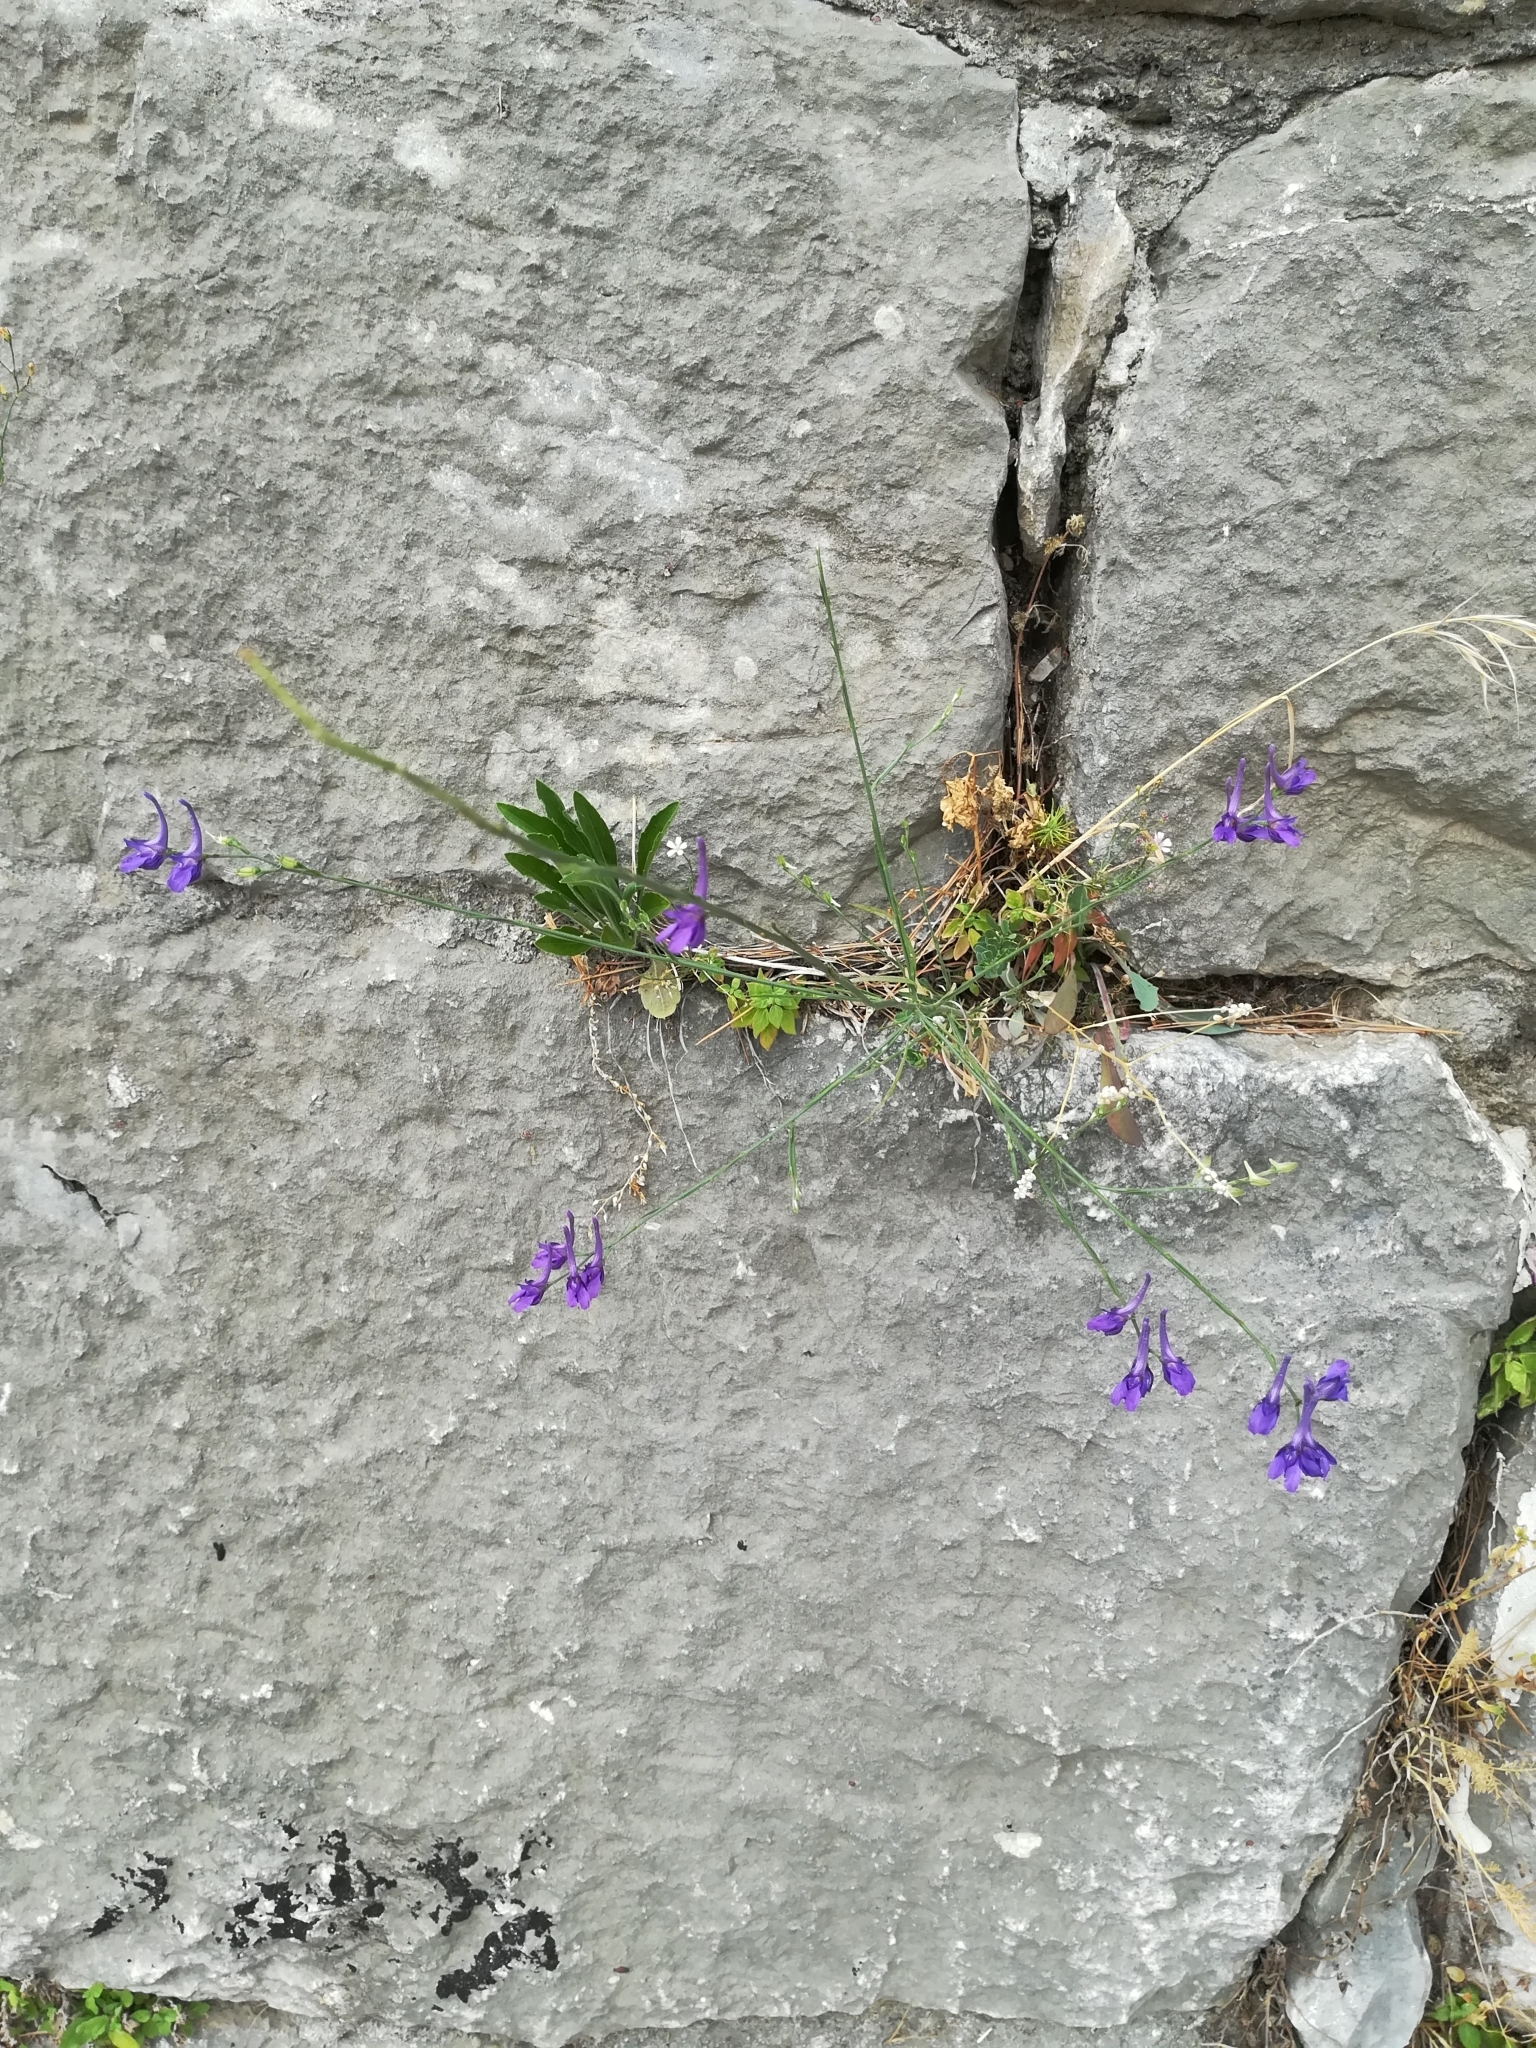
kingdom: Plantae
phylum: Tracheophyta
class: Magnoliopsida
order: Ranunculales
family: Ranunculaceae
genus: Delphinium
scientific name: Delphinium peregrinum
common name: Violet larkspur
